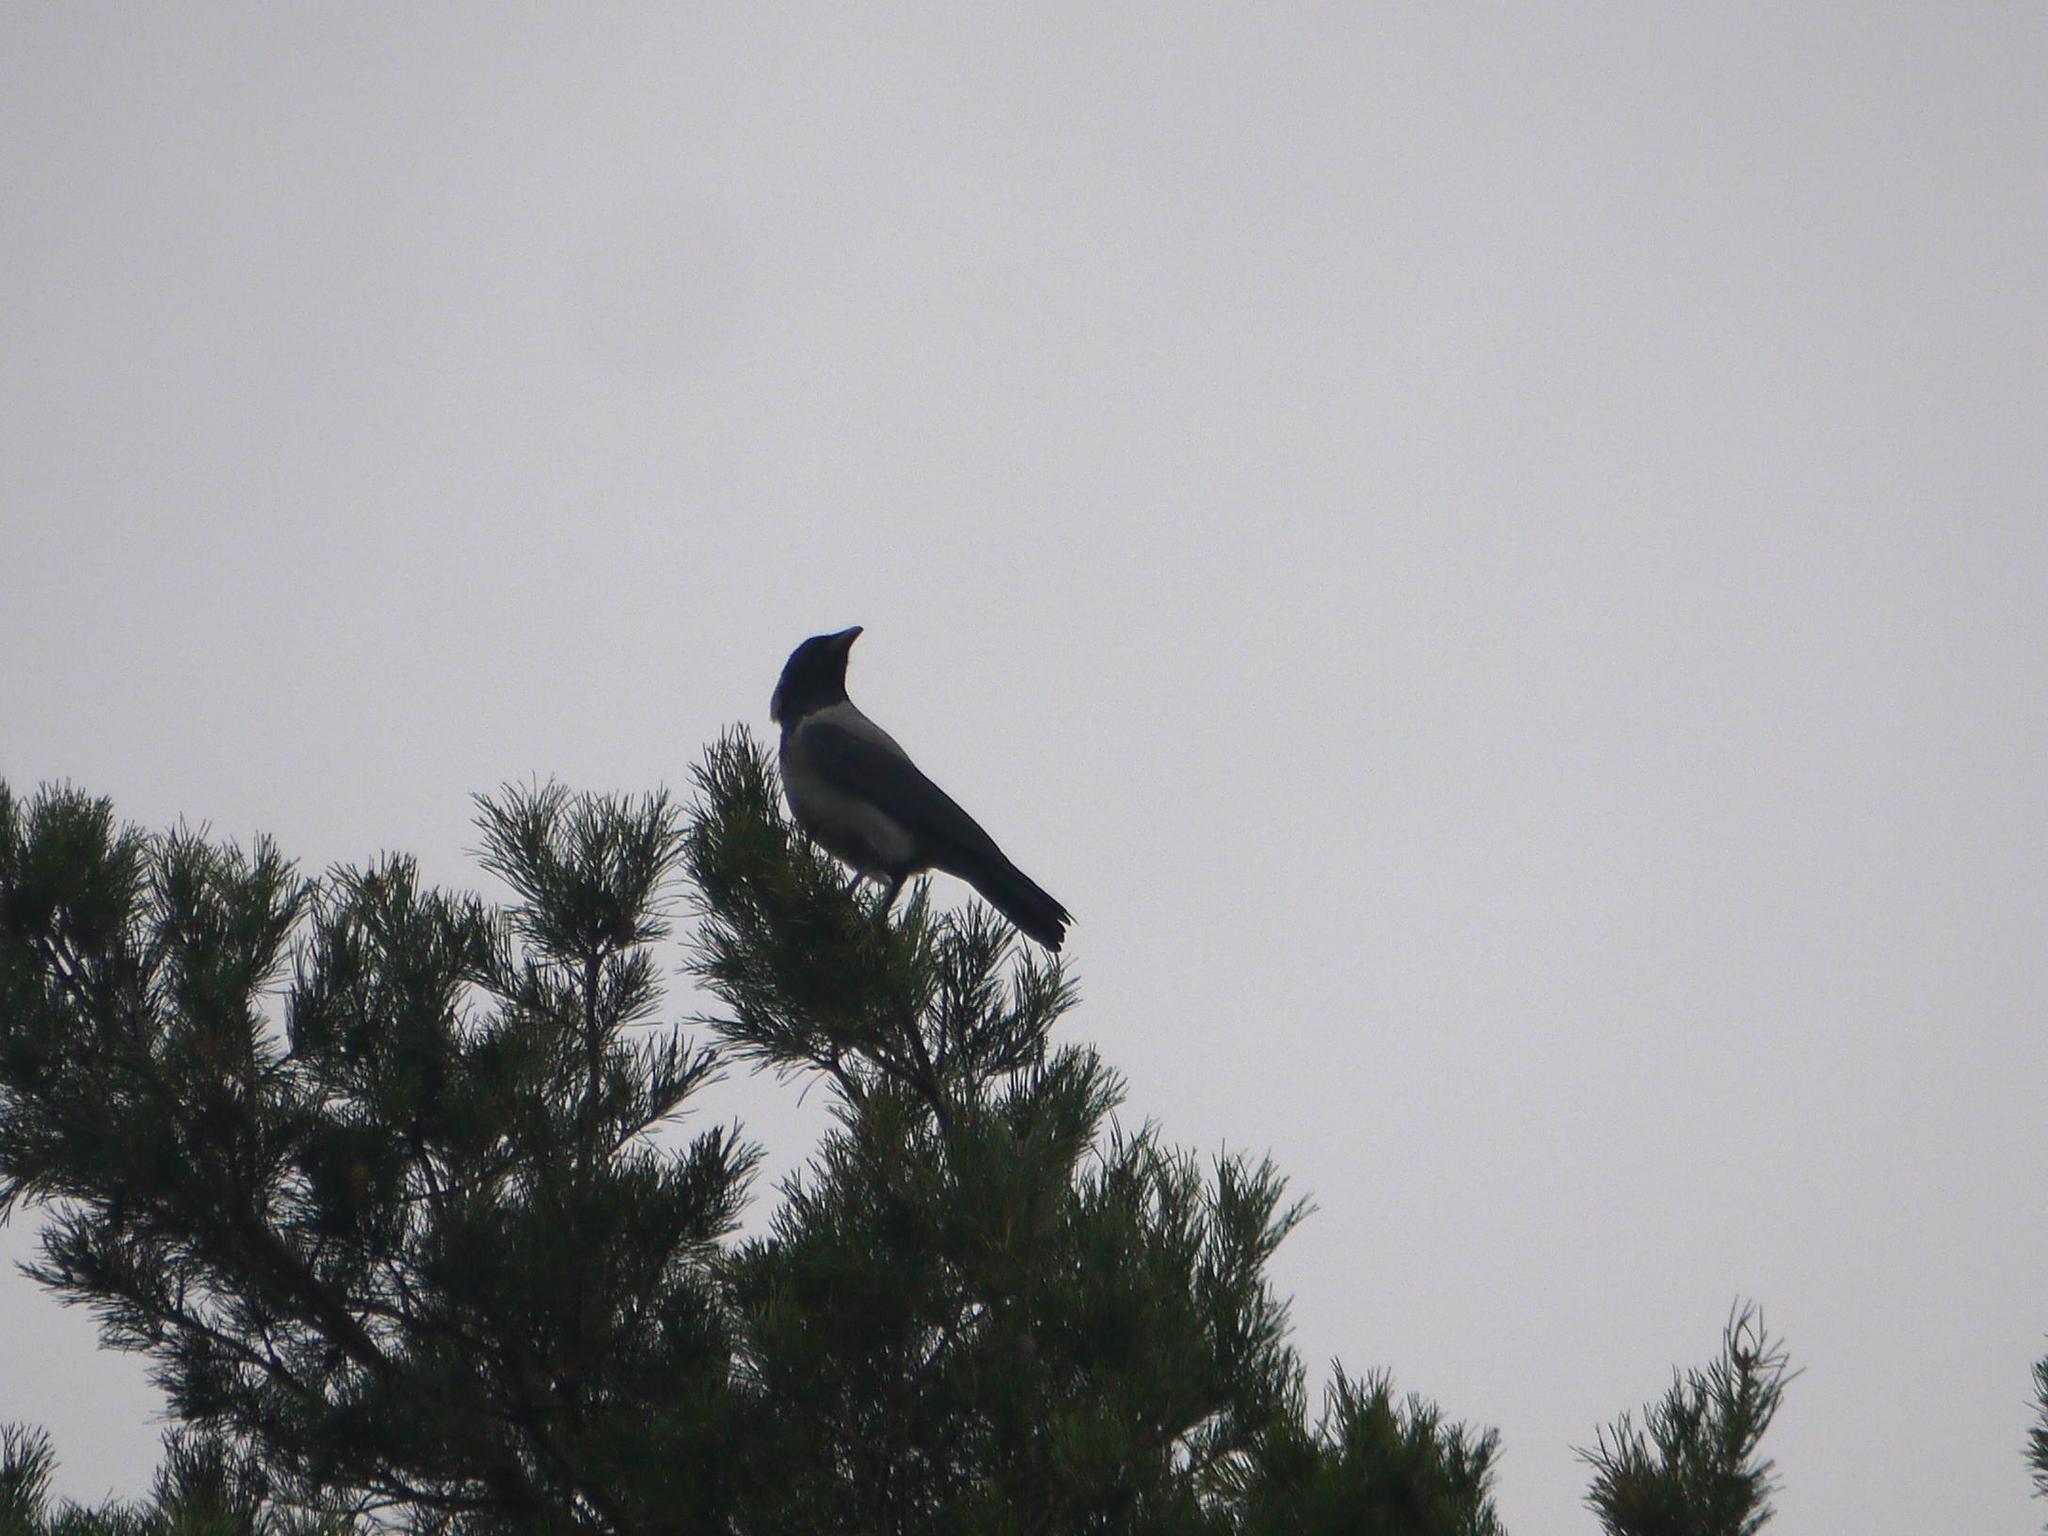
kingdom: Animalia
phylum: Chordata
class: Aves
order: Passeriformes
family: Corvidae
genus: Corvus
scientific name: Corvus cornix
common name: Hooded crow
